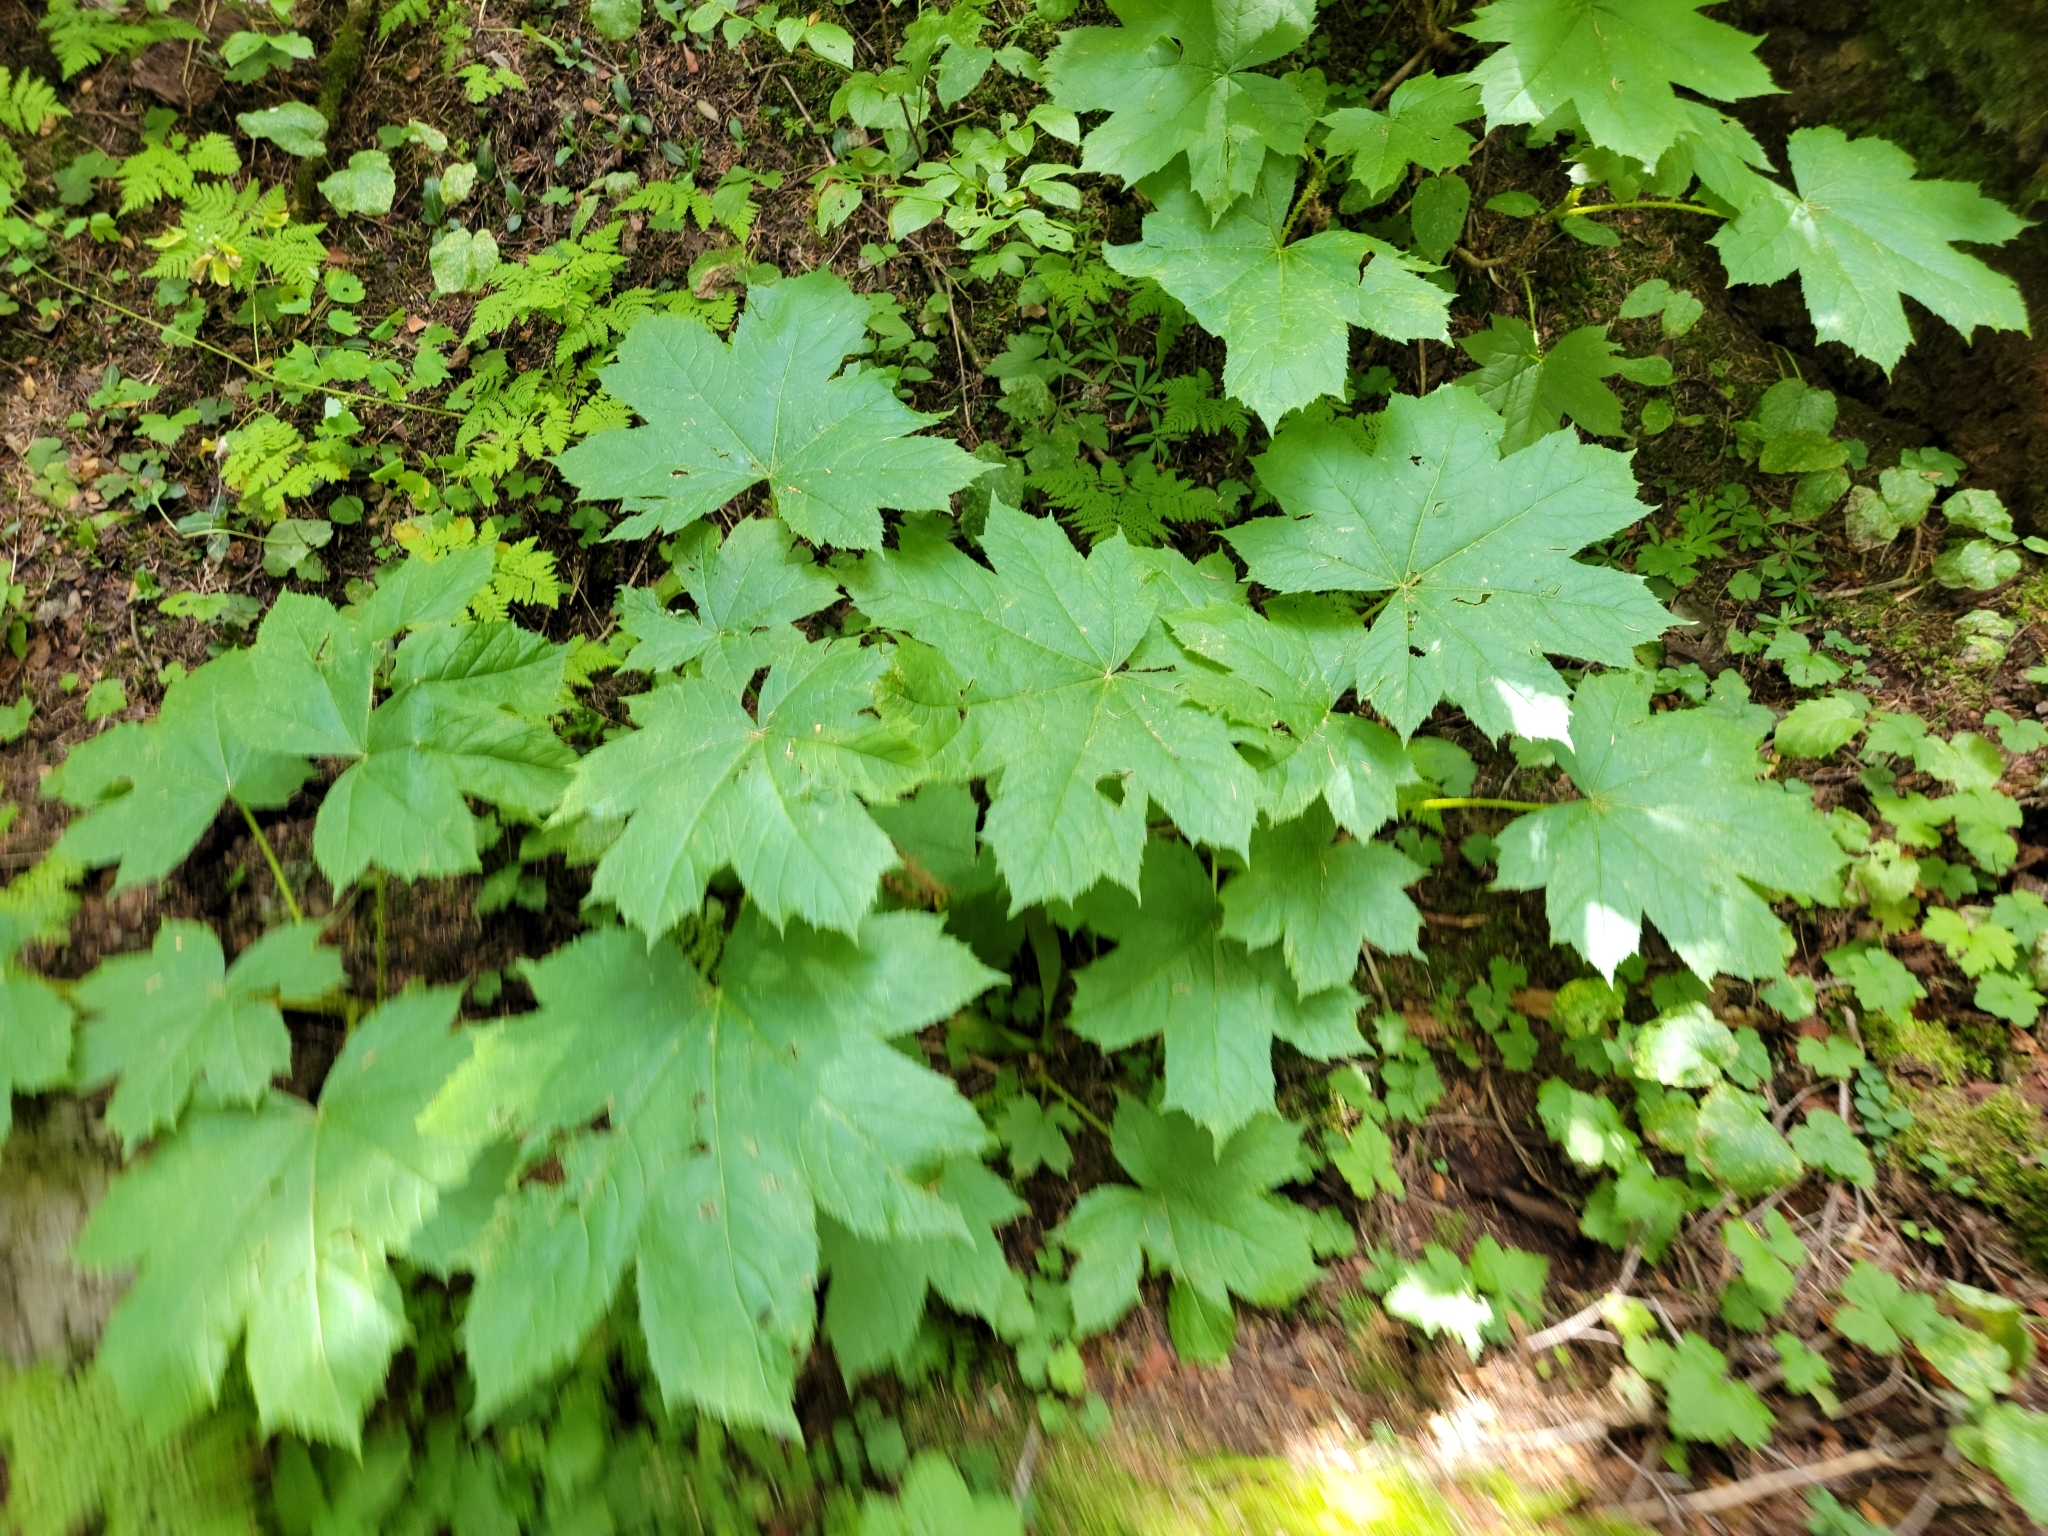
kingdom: Plantae
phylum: Tracheophyta
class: Magnoliopsida
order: Apiales
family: Araliaceae
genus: Oplopanax
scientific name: Oplopanax horridus
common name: Devil's walking-stick
